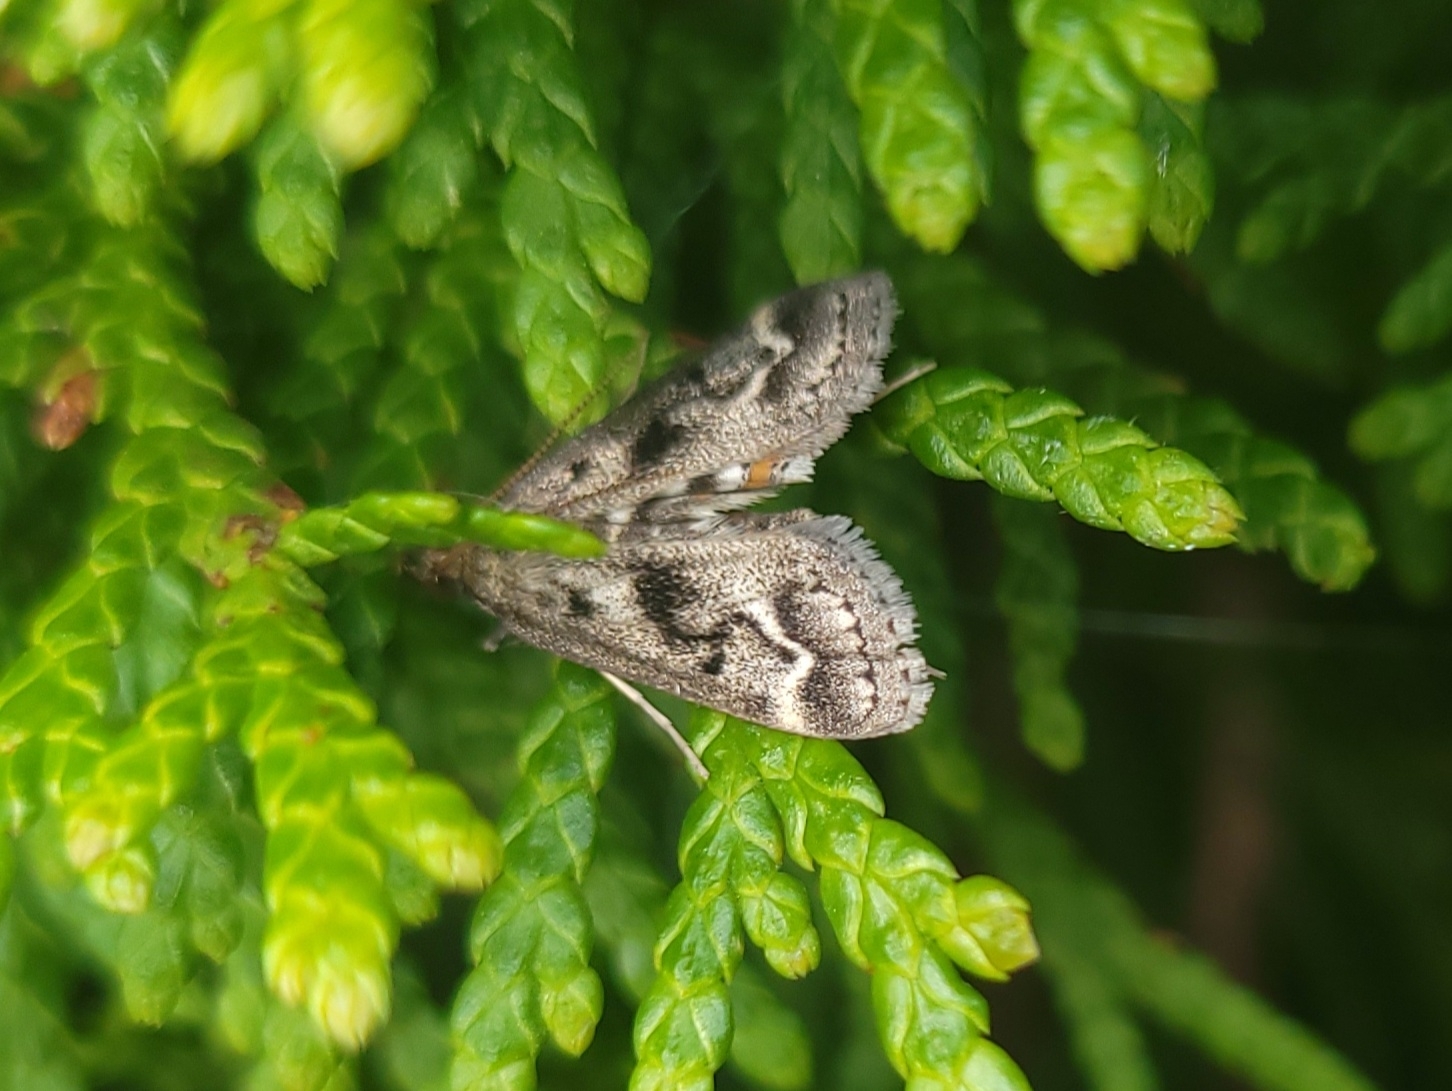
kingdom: Animalia
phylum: Arthropoda
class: Insecta
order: Lepidoptera
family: Crambidae
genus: Parapoynx
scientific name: Parapoynx obscuralis
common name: American china-mark
